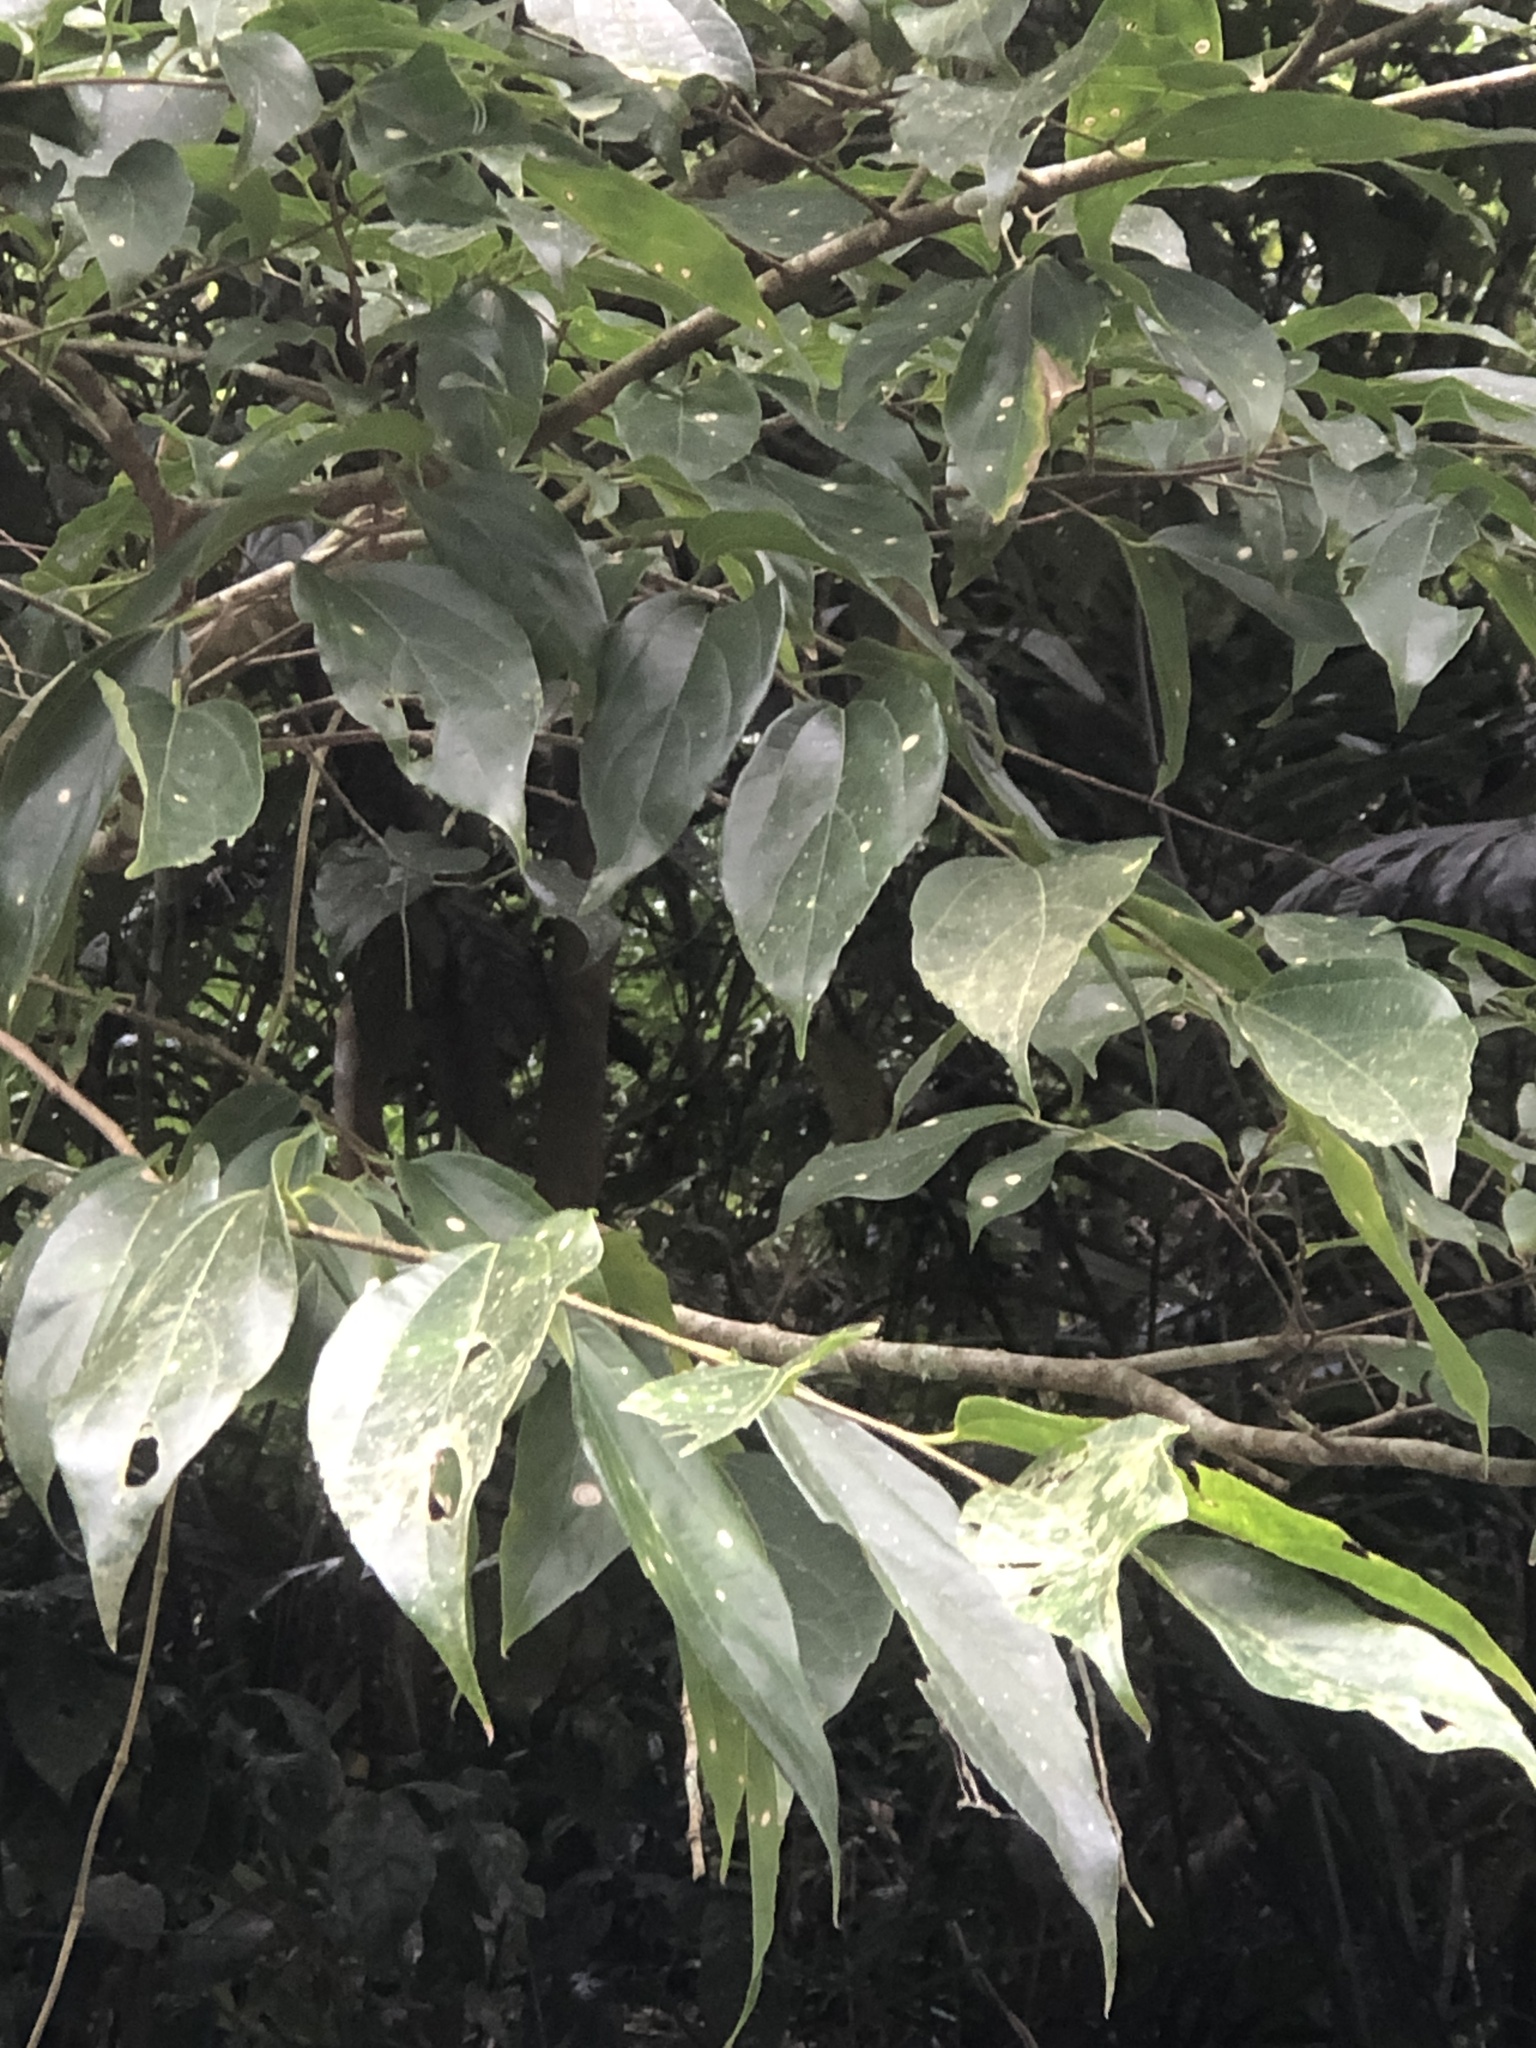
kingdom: Plantae
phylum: Tracheophyta
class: Magnoliopsida
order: Rosales
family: Cannabaceae
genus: Celtis
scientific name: Celtis tetrandra
